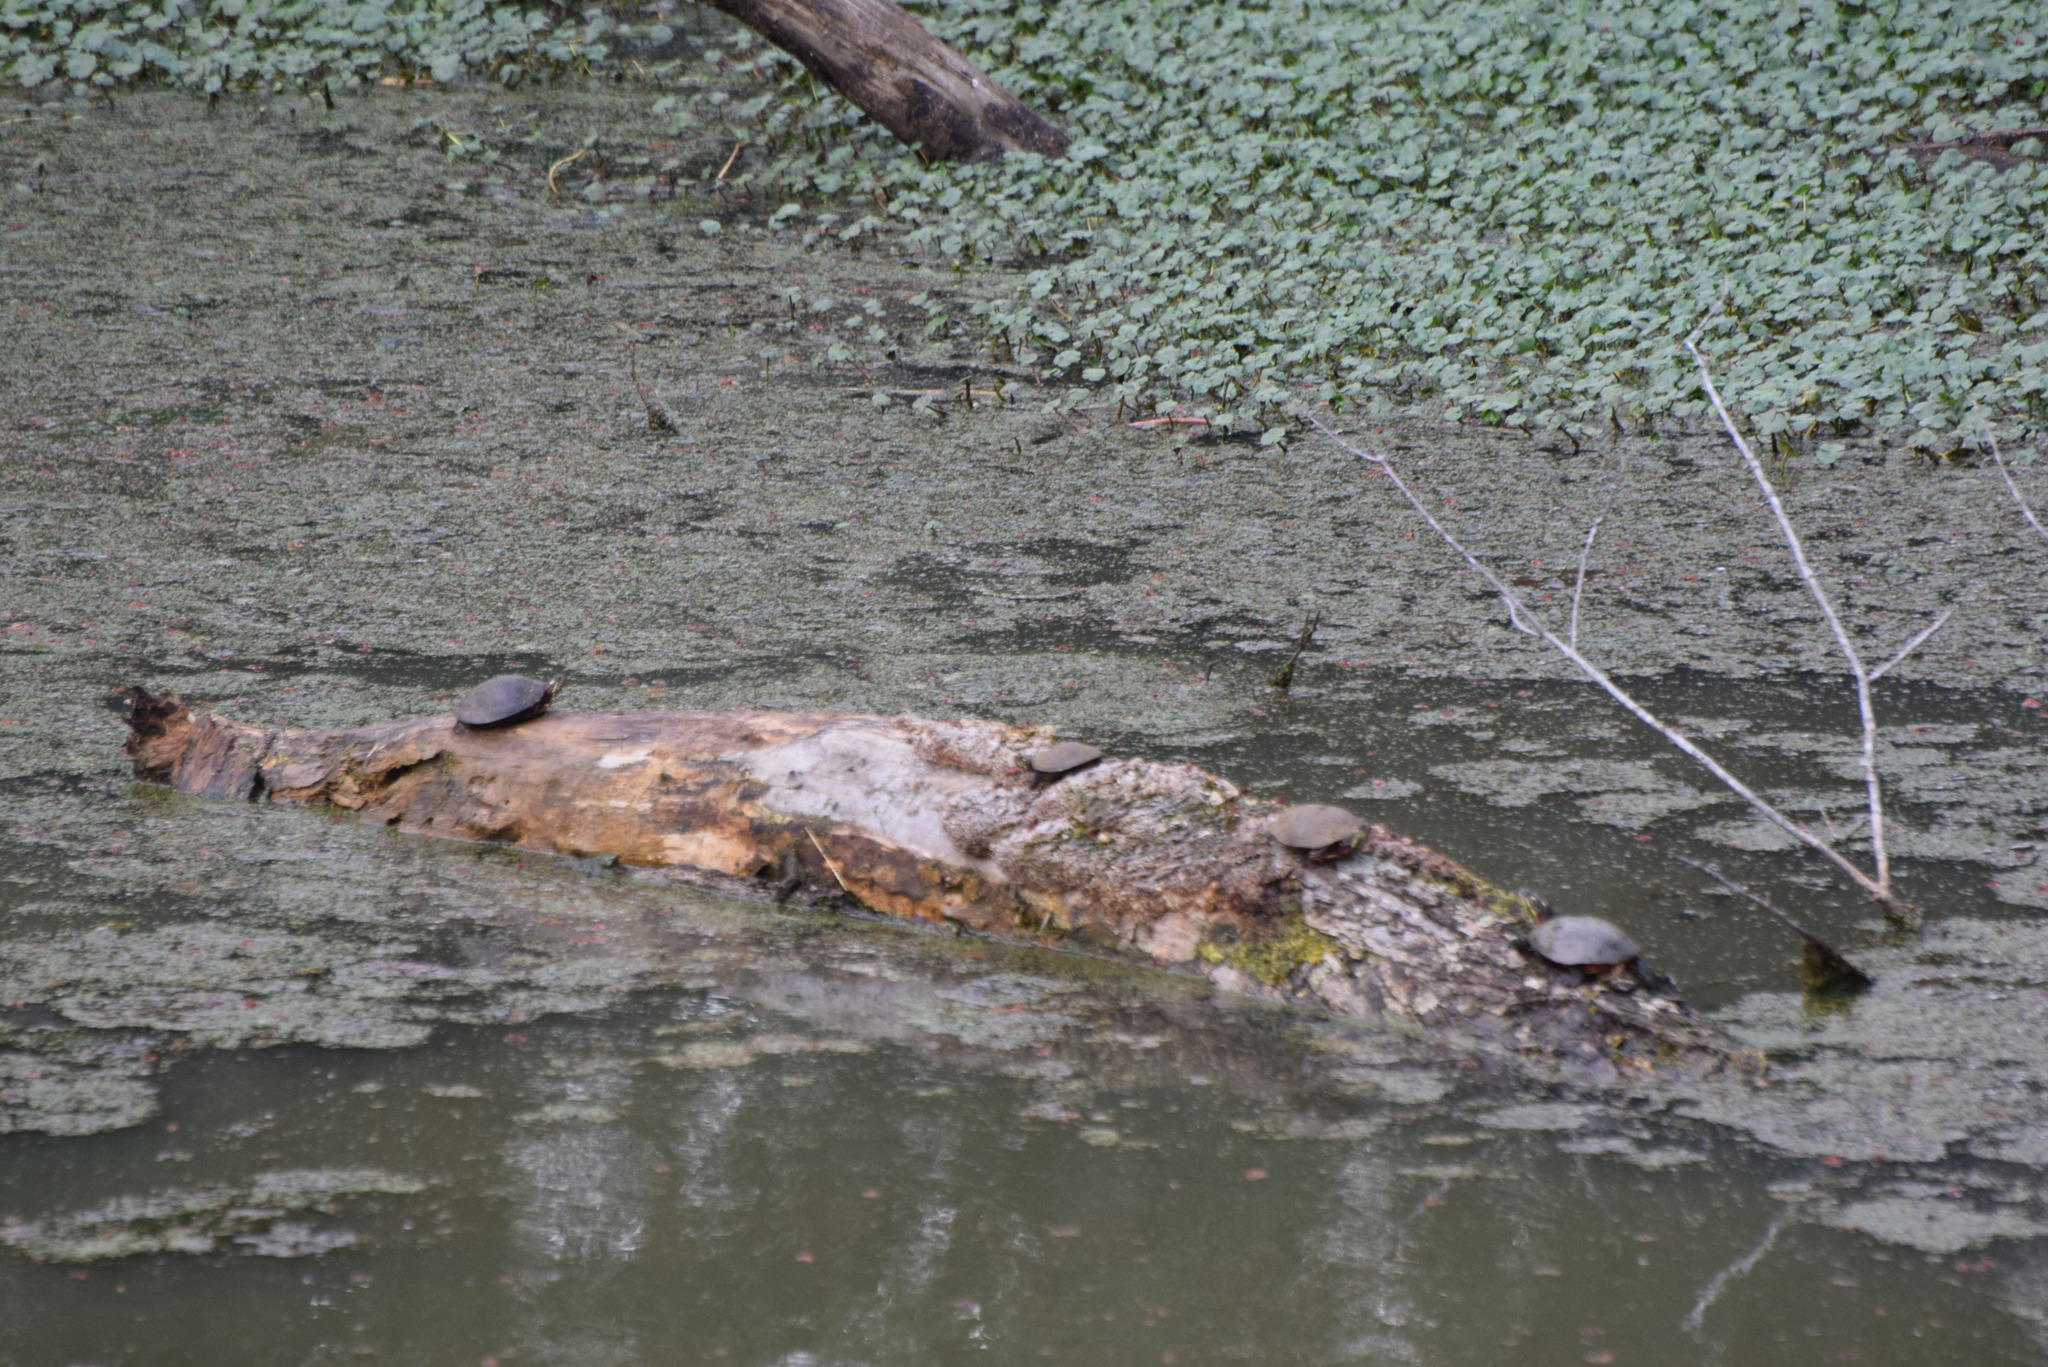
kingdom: Animalia
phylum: Chordata
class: Testudines
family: Emydidae
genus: Chrysemys
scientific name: Chrysemys picta
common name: Painted turtle
